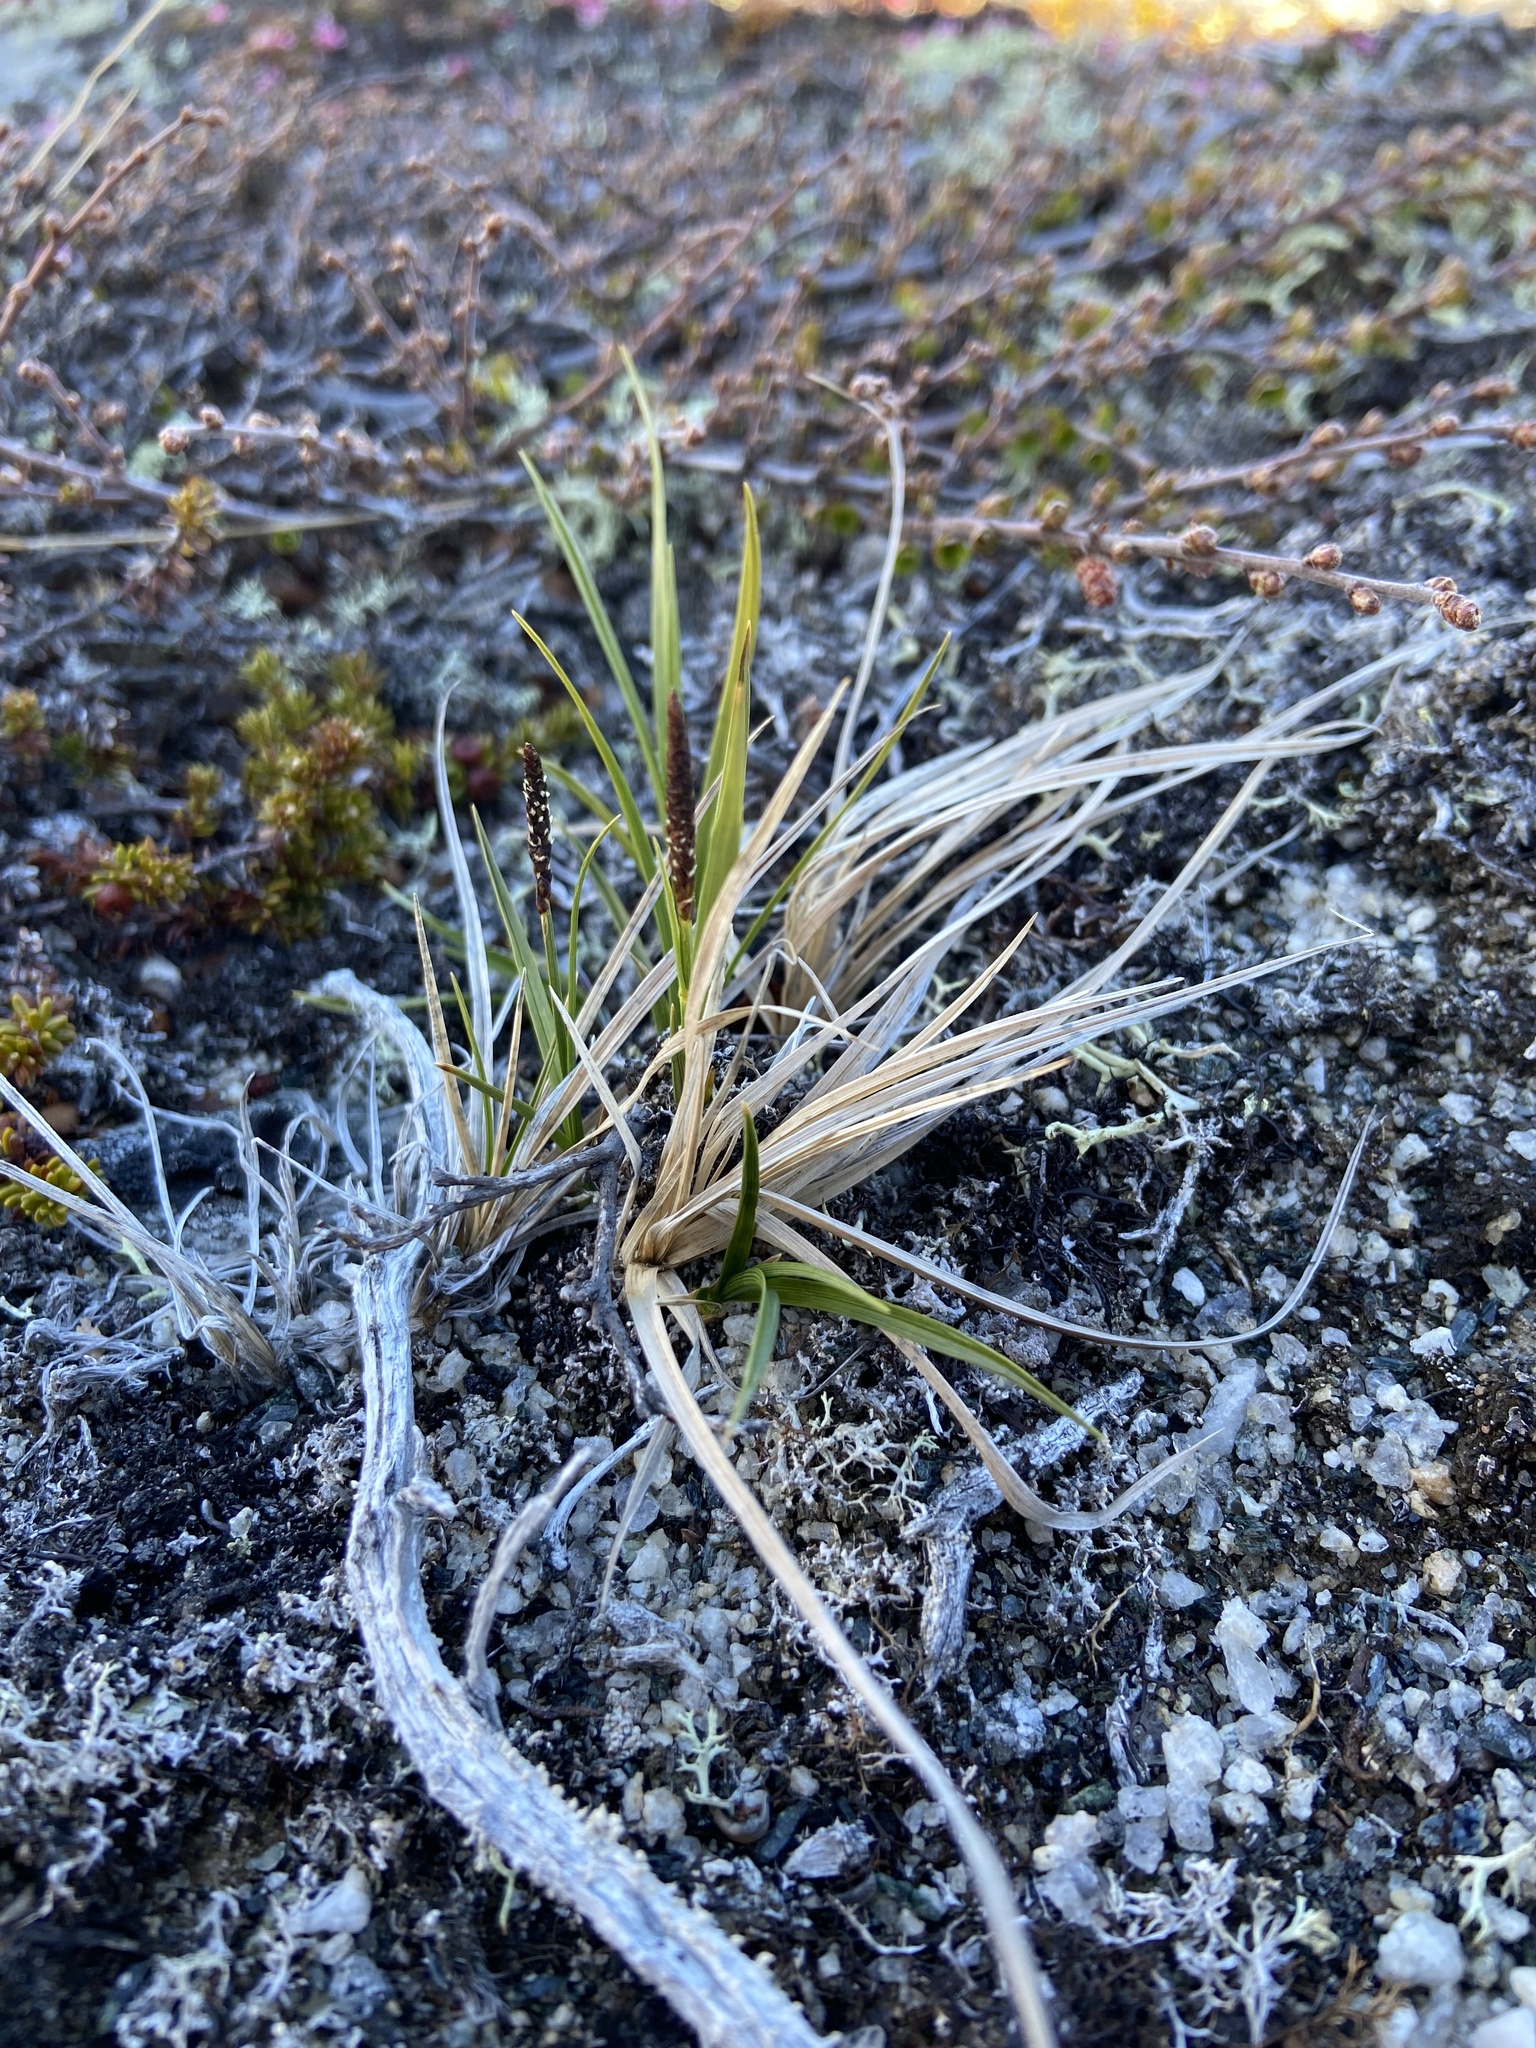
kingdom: Plantae
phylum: Tracheophyta
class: Liliopsida
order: Poales
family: Cyperaceae
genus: Carex
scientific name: Carex bigelowii
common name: Stiff sedge
